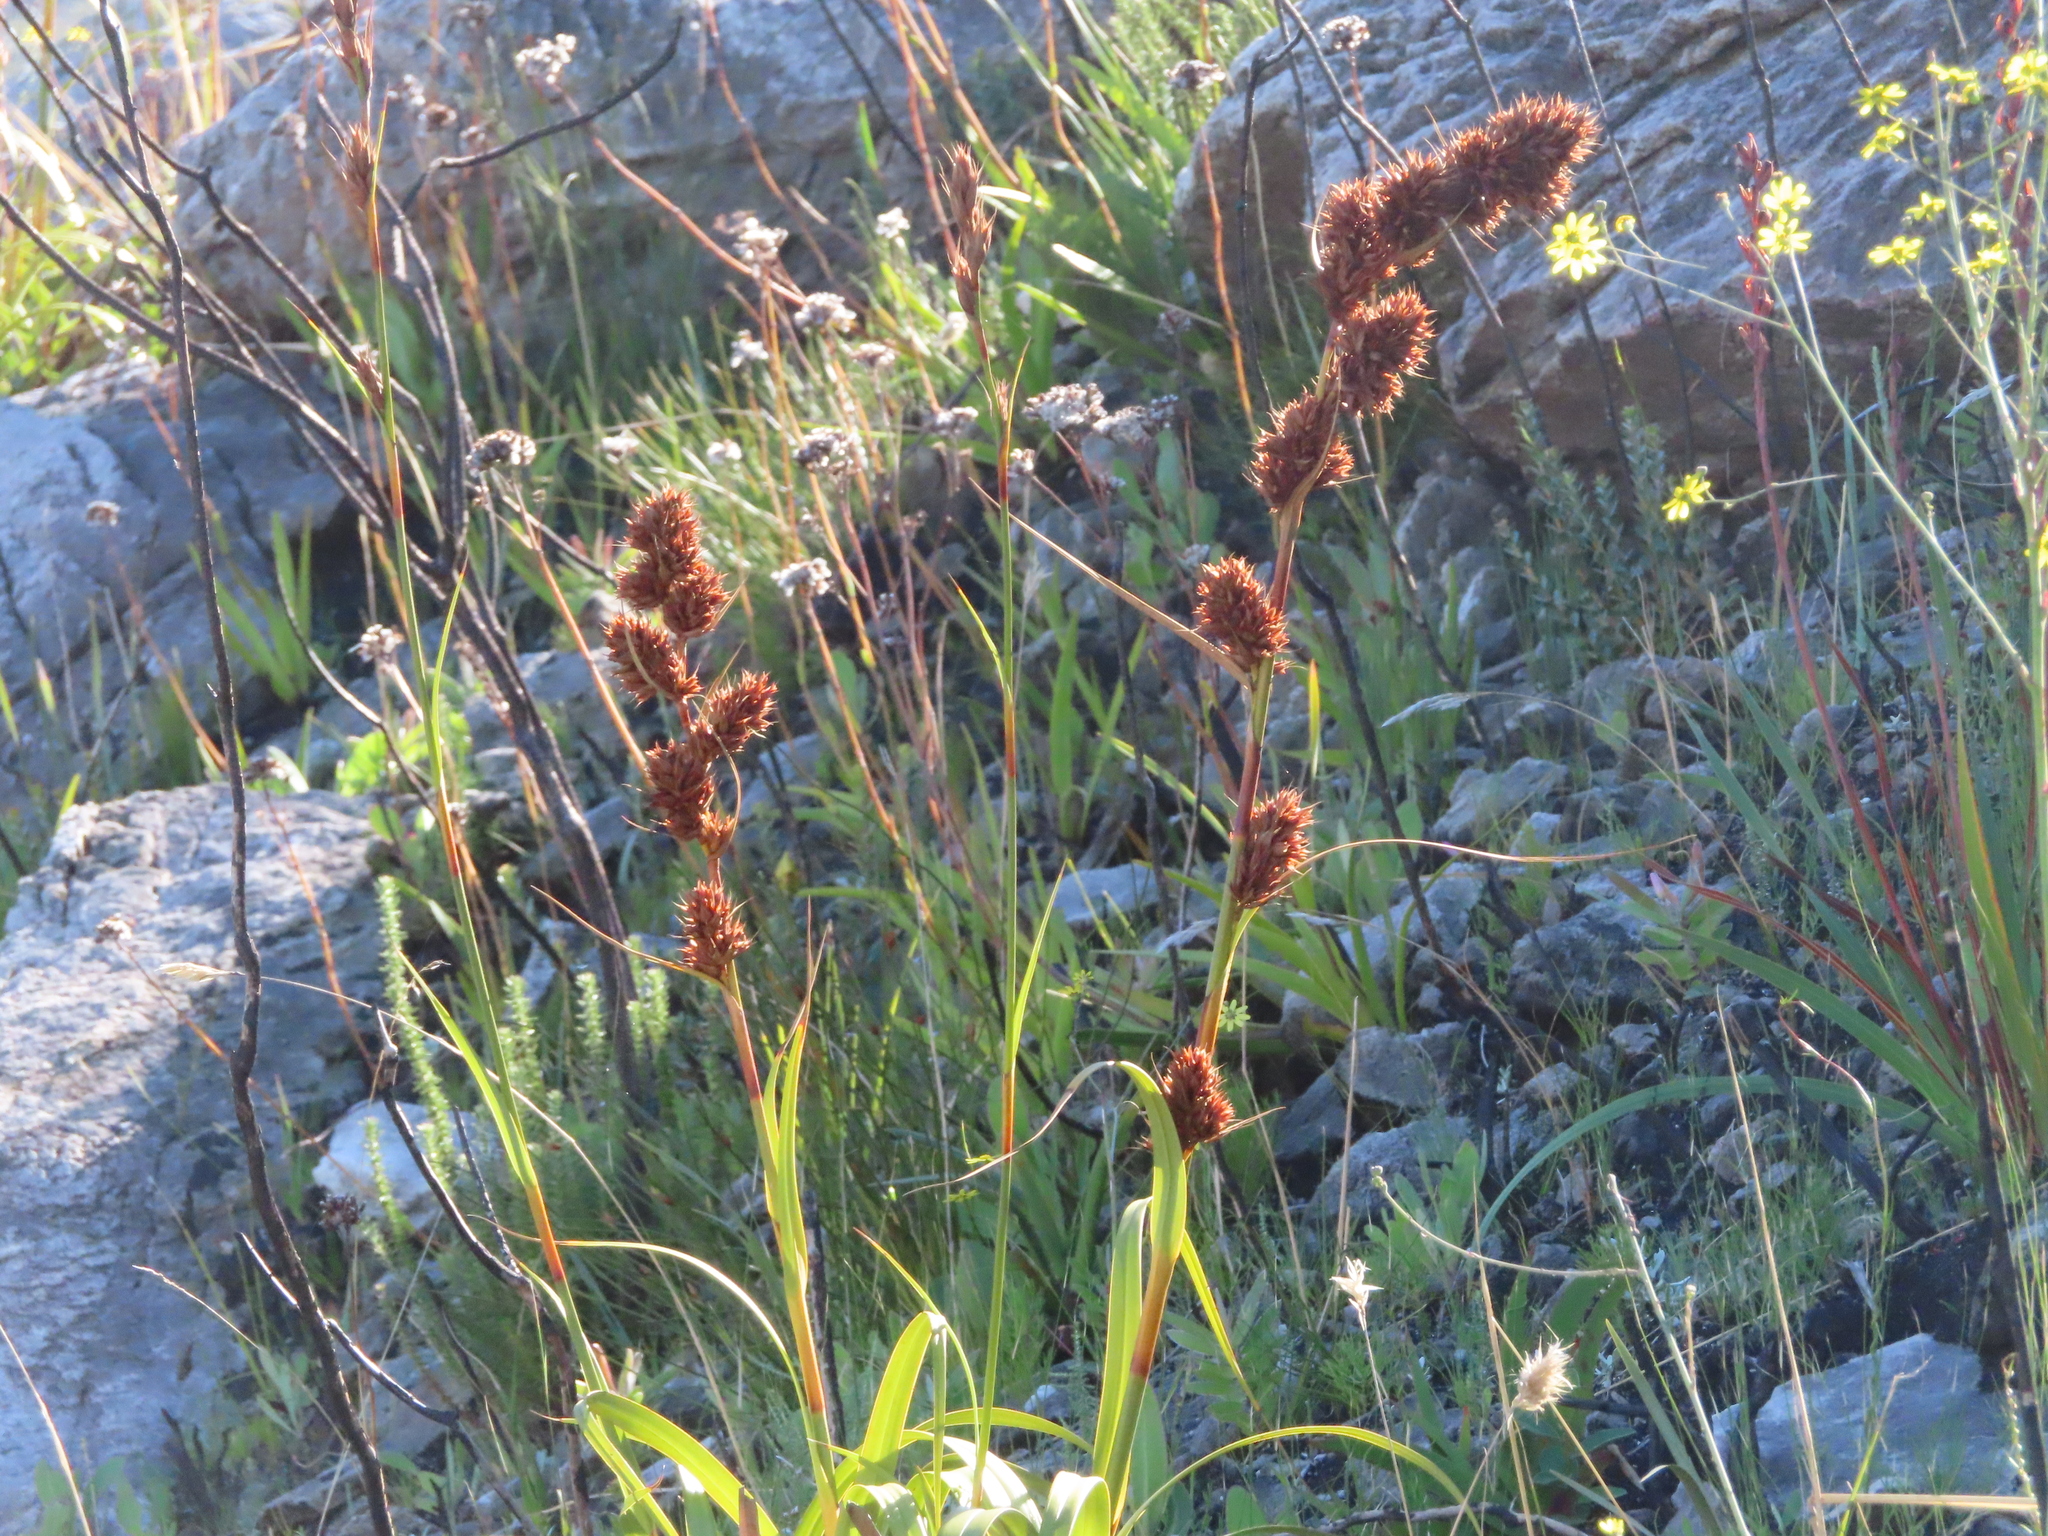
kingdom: Plantae
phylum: Tracheophyta
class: Liliopsida
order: Poales
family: Cyperaceae
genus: Tetraria
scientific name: Tetraria thermalis
